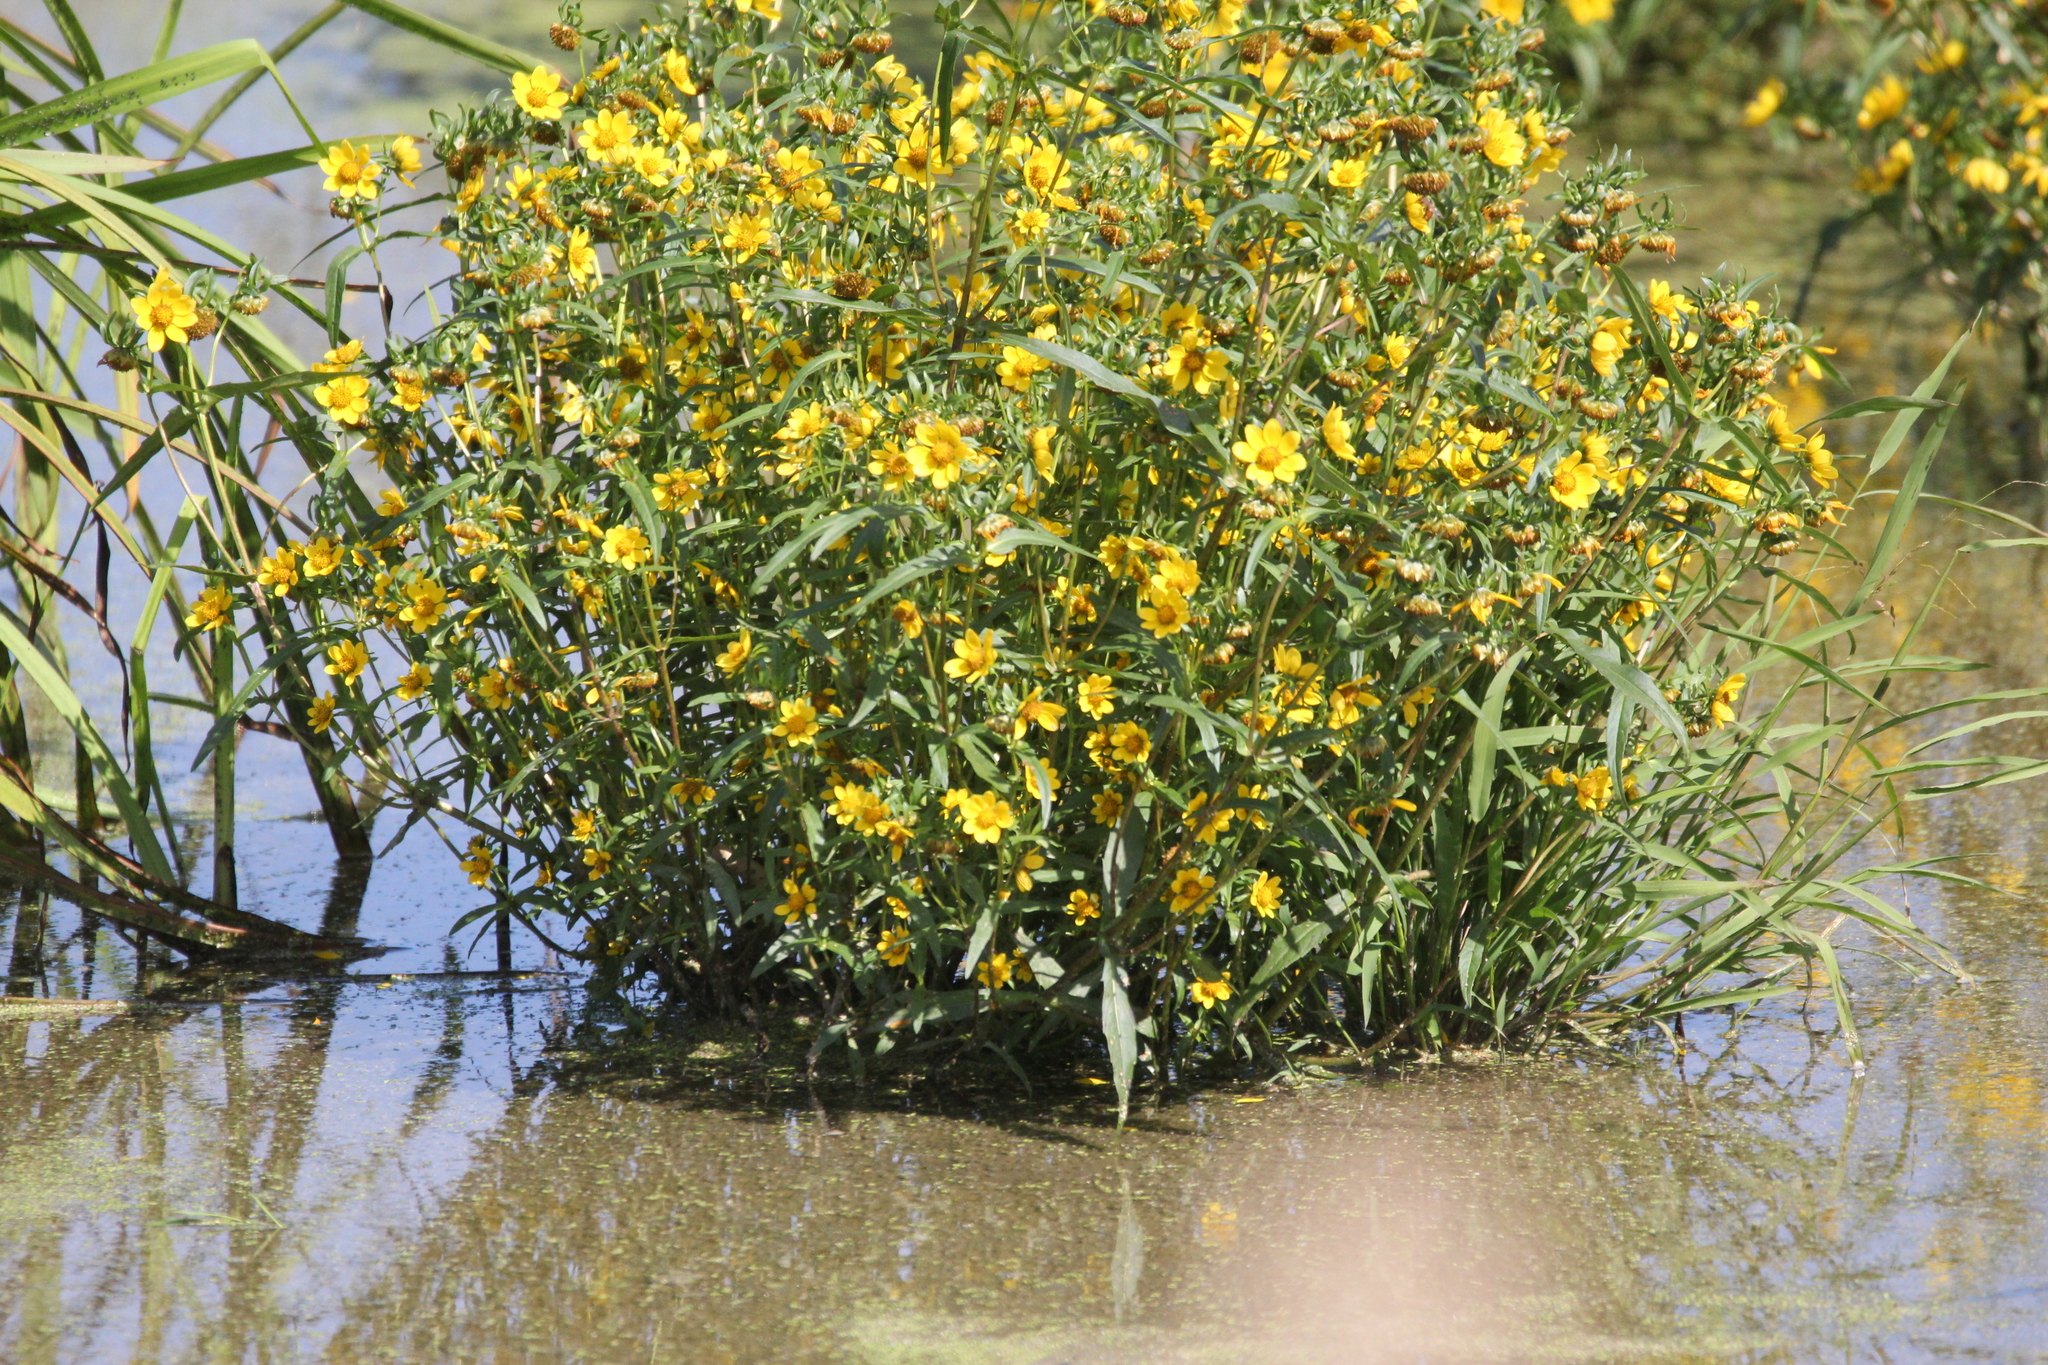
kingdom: Plantae
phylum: Tracheophyta
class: Magnoliopsida
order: Asterales
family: Asteraceae
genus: Bidens
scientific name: Bidens cernua
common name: Nodding bur-marigold
